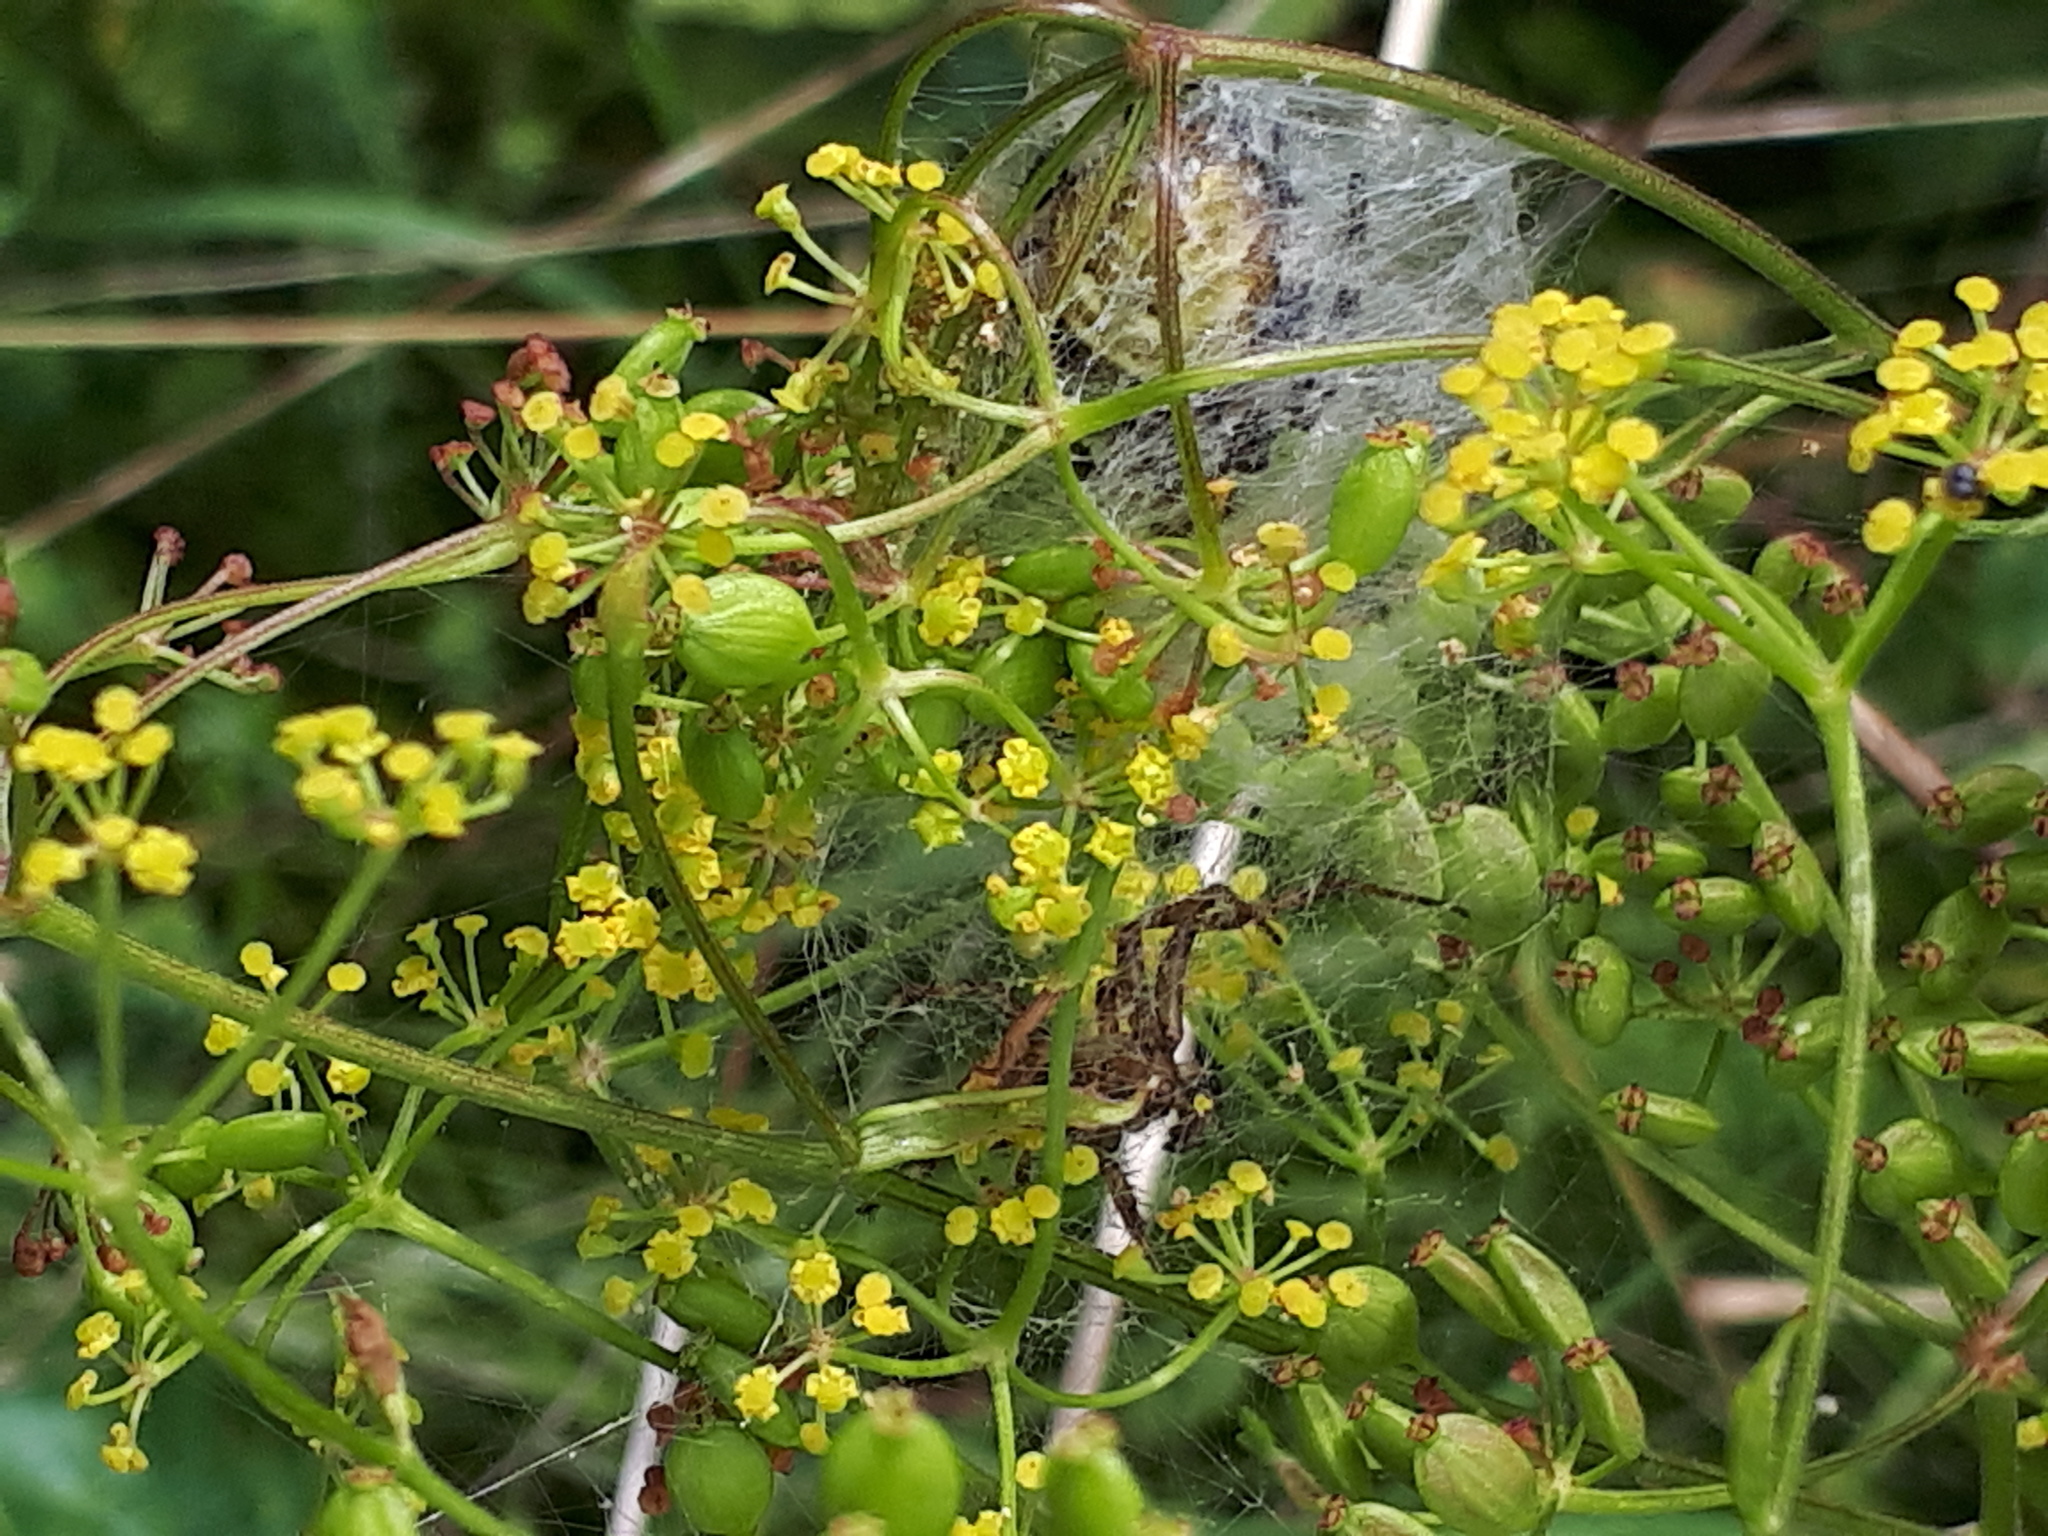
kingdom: Animalia
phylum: Arthropoda
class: Arachnida
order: Araneae
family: Araneidae
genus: Araneus
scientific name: Araneus quadratus
